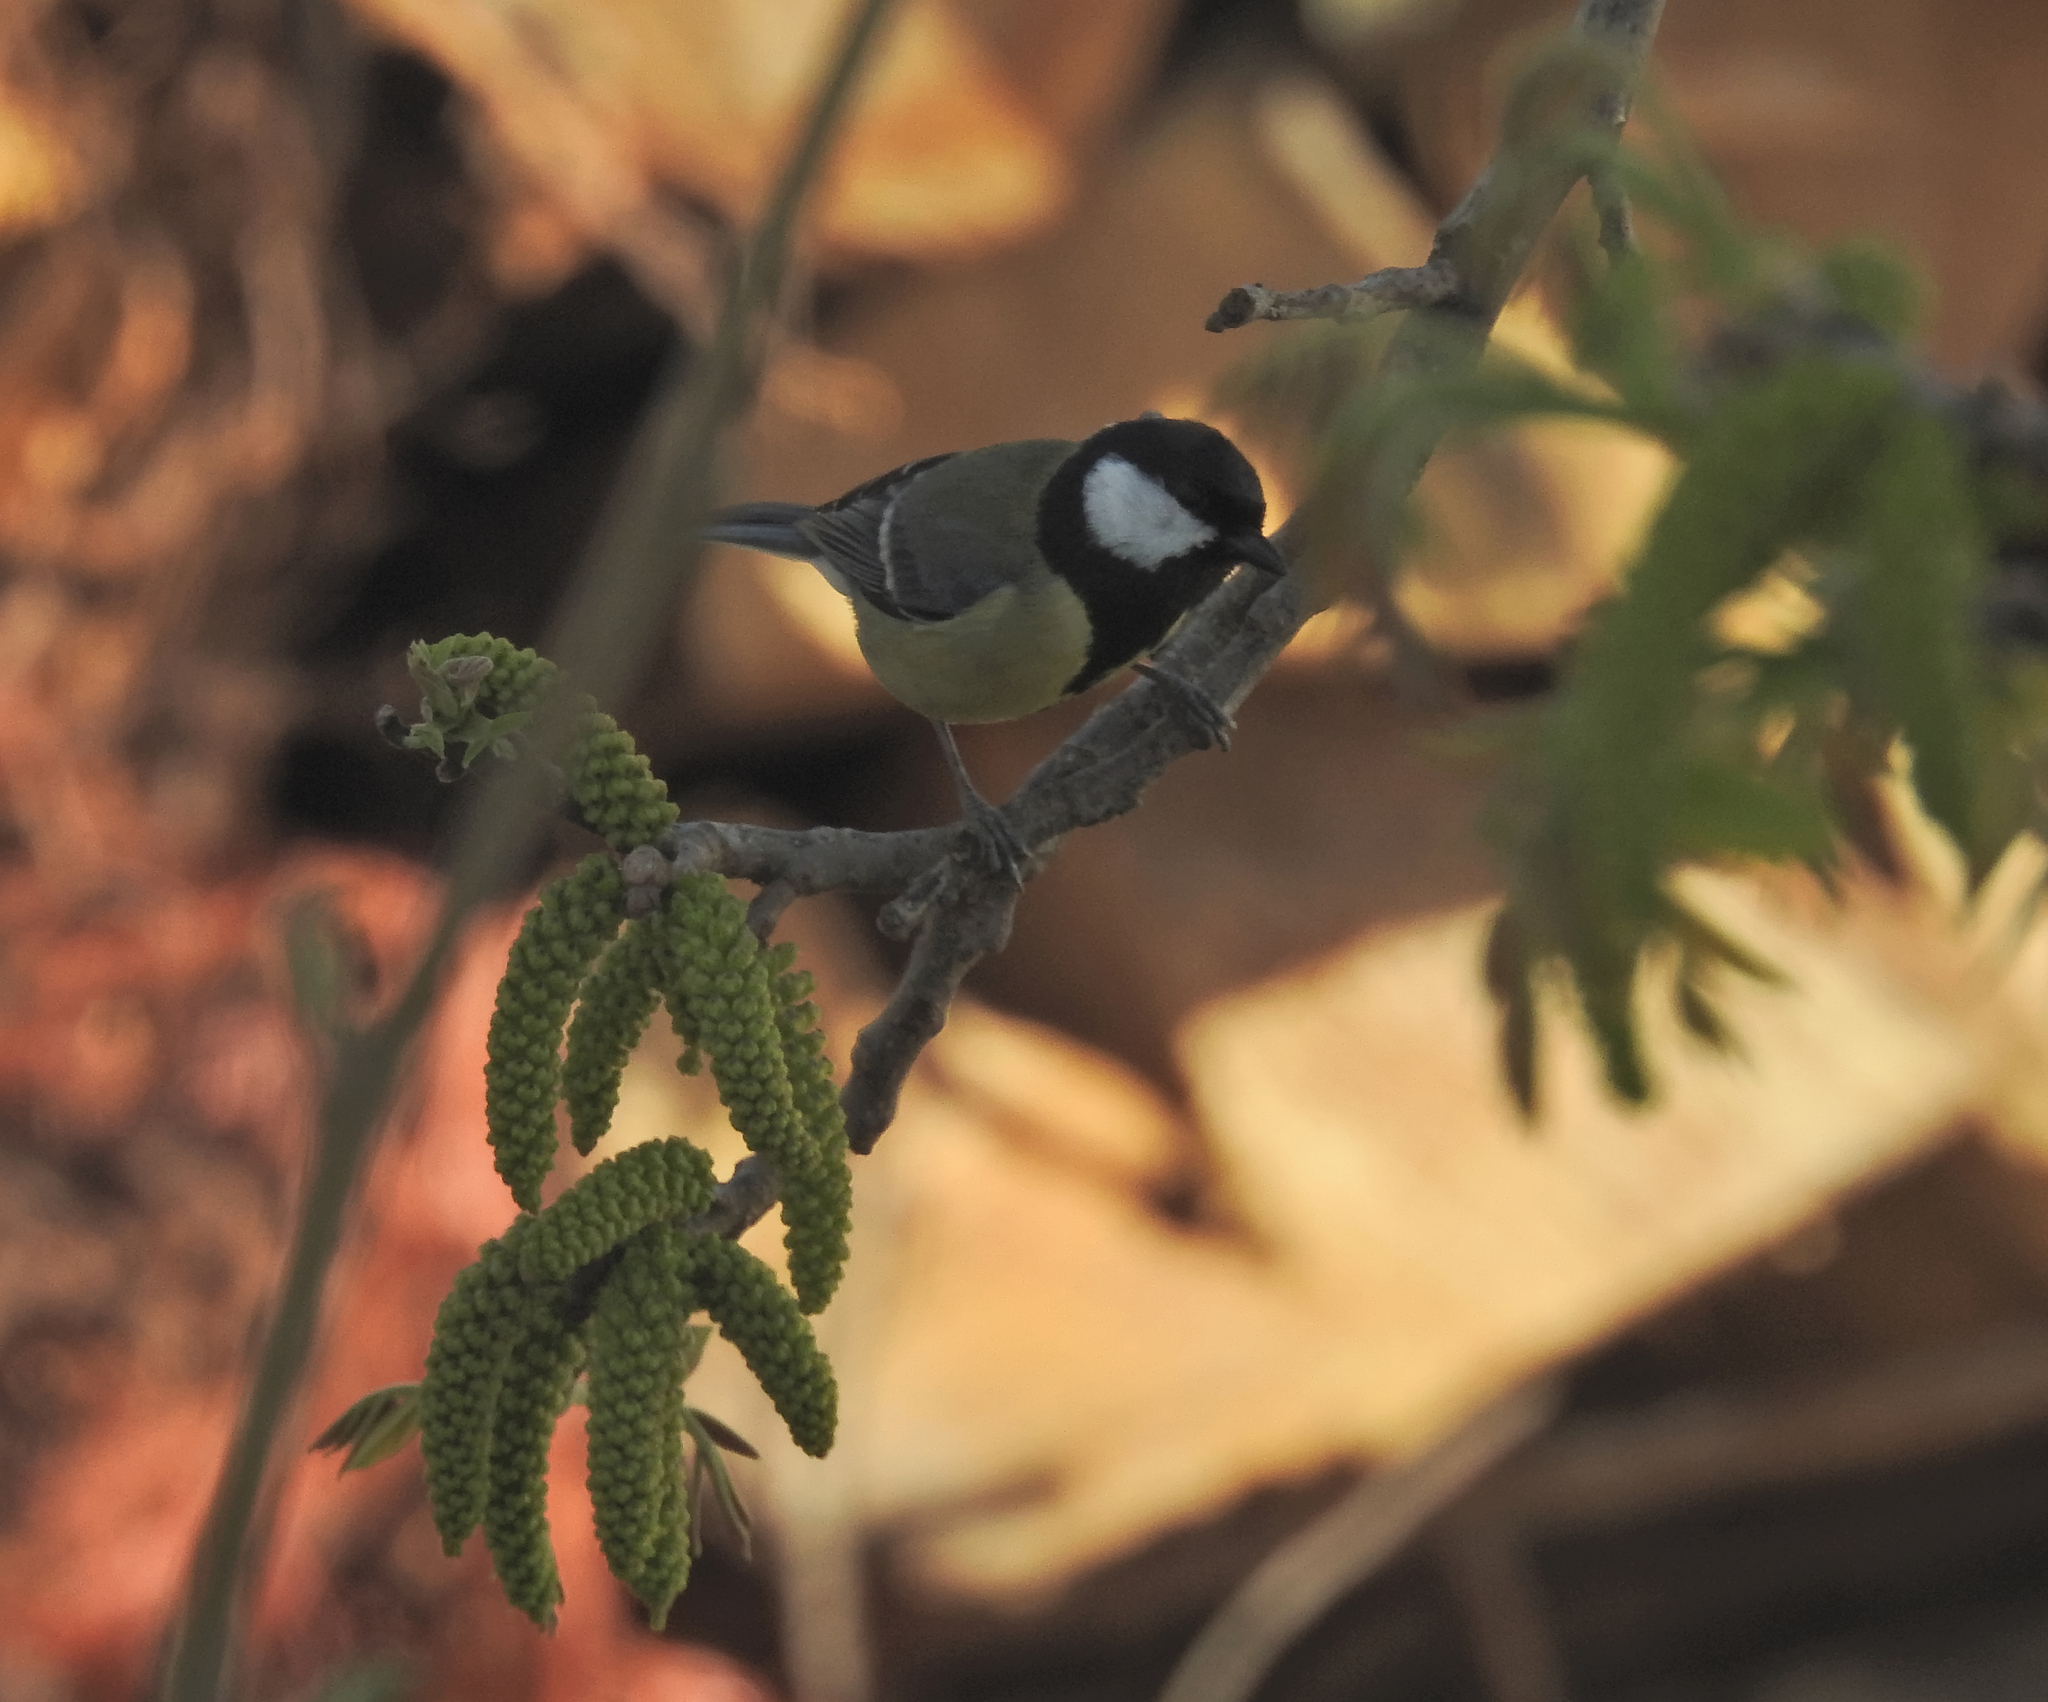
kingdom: Animalia
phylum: Chordata
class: Aves
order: Passeriformes
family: Paridae
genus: Parus
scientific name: Parus major
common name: Great tit
